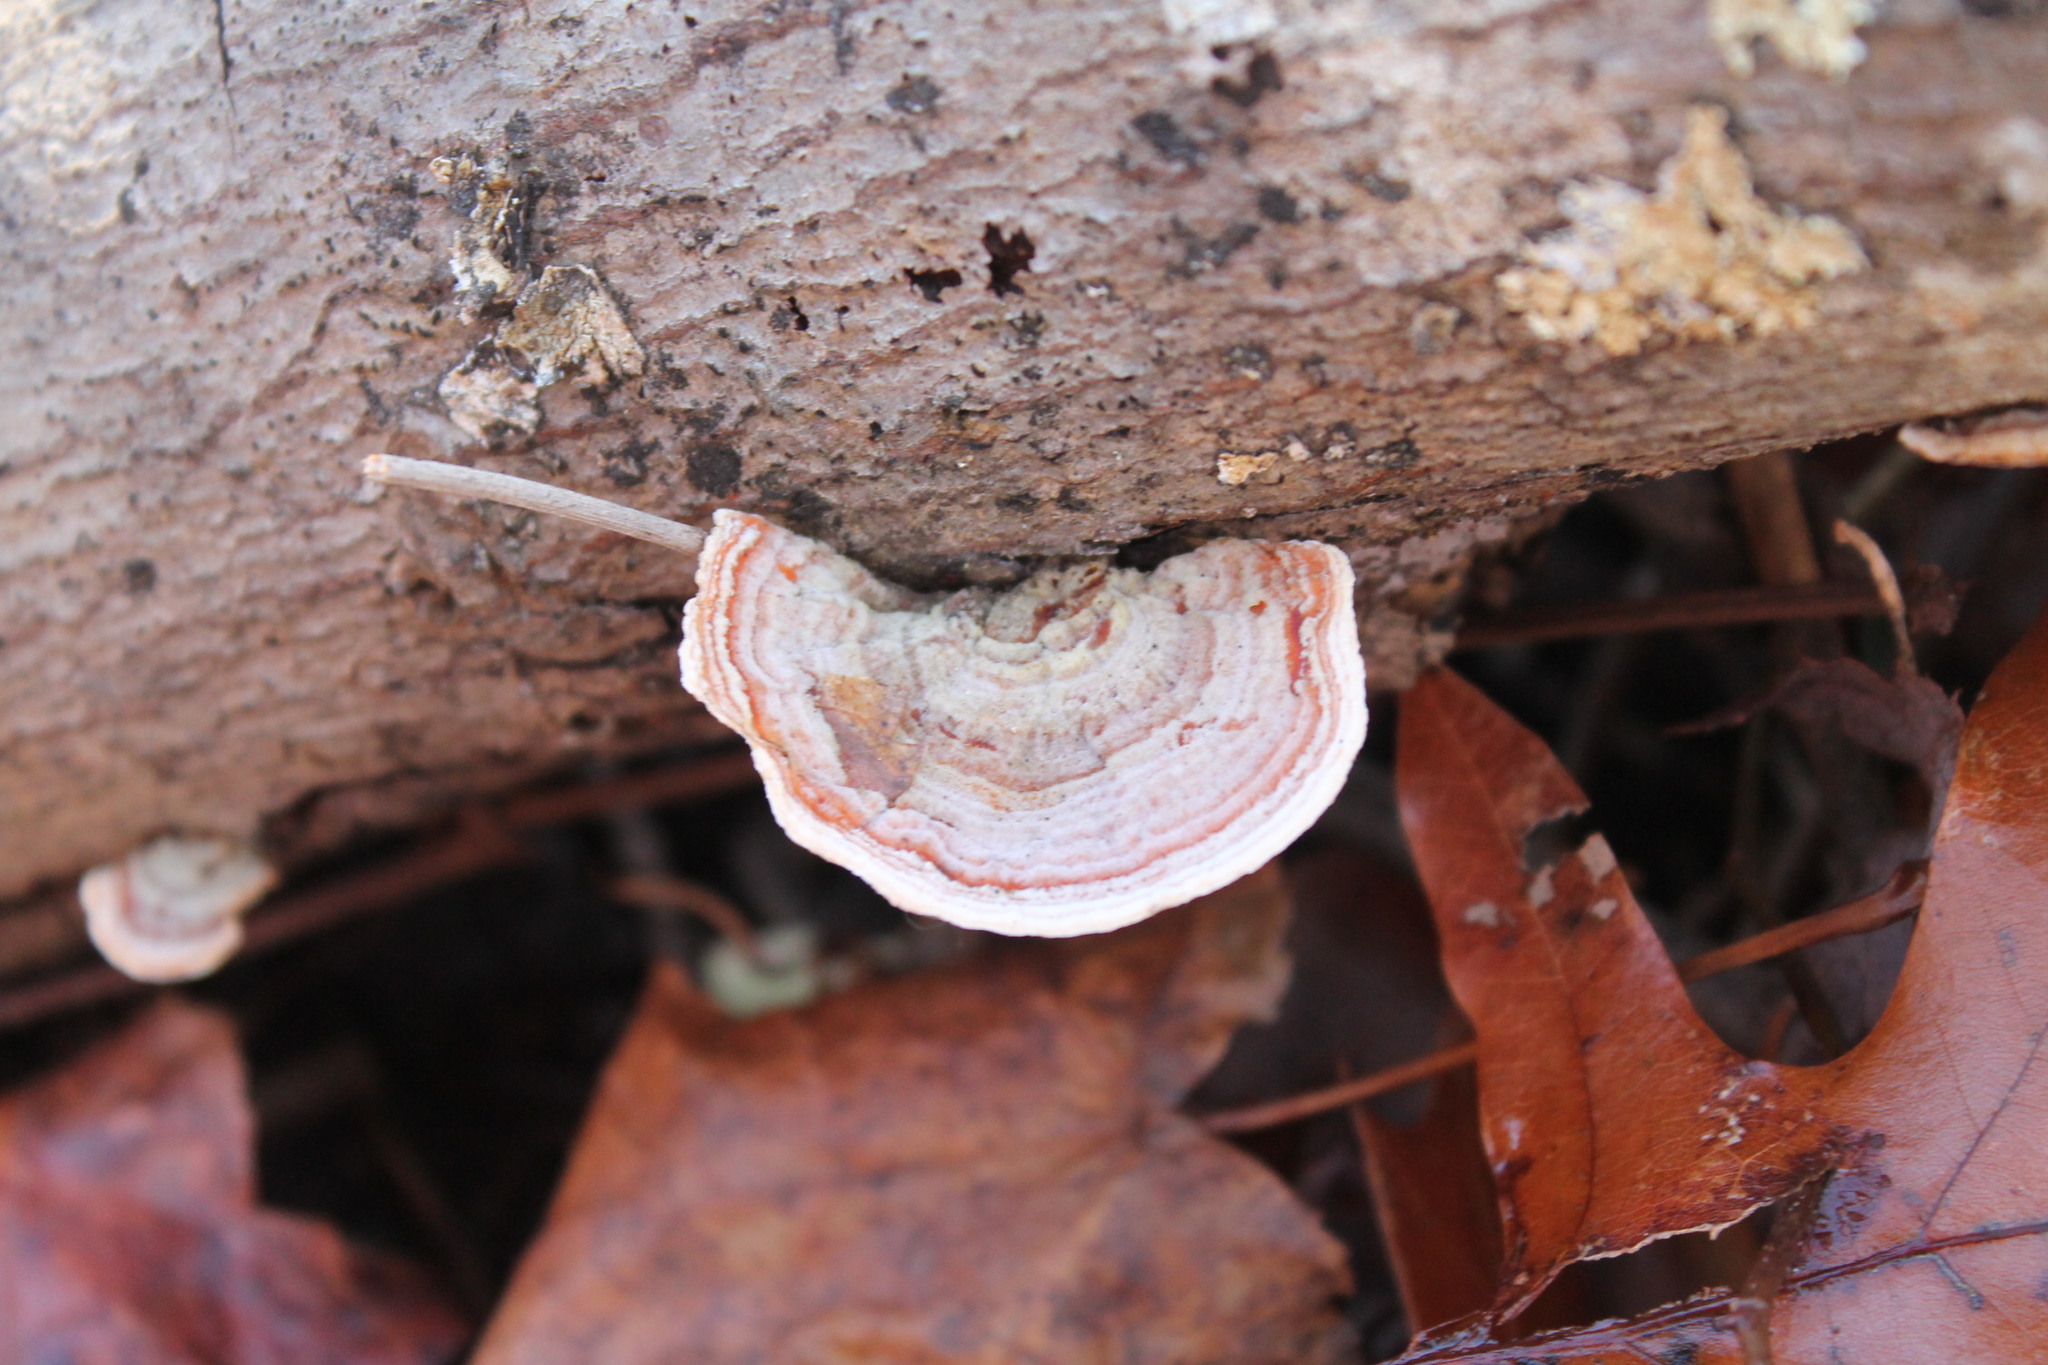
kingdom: Fungi
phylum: Basidiomycota
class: Agaricomycetes
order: Russulales
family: Stereaceae
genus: Stereum
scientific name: Stereum lobatum
